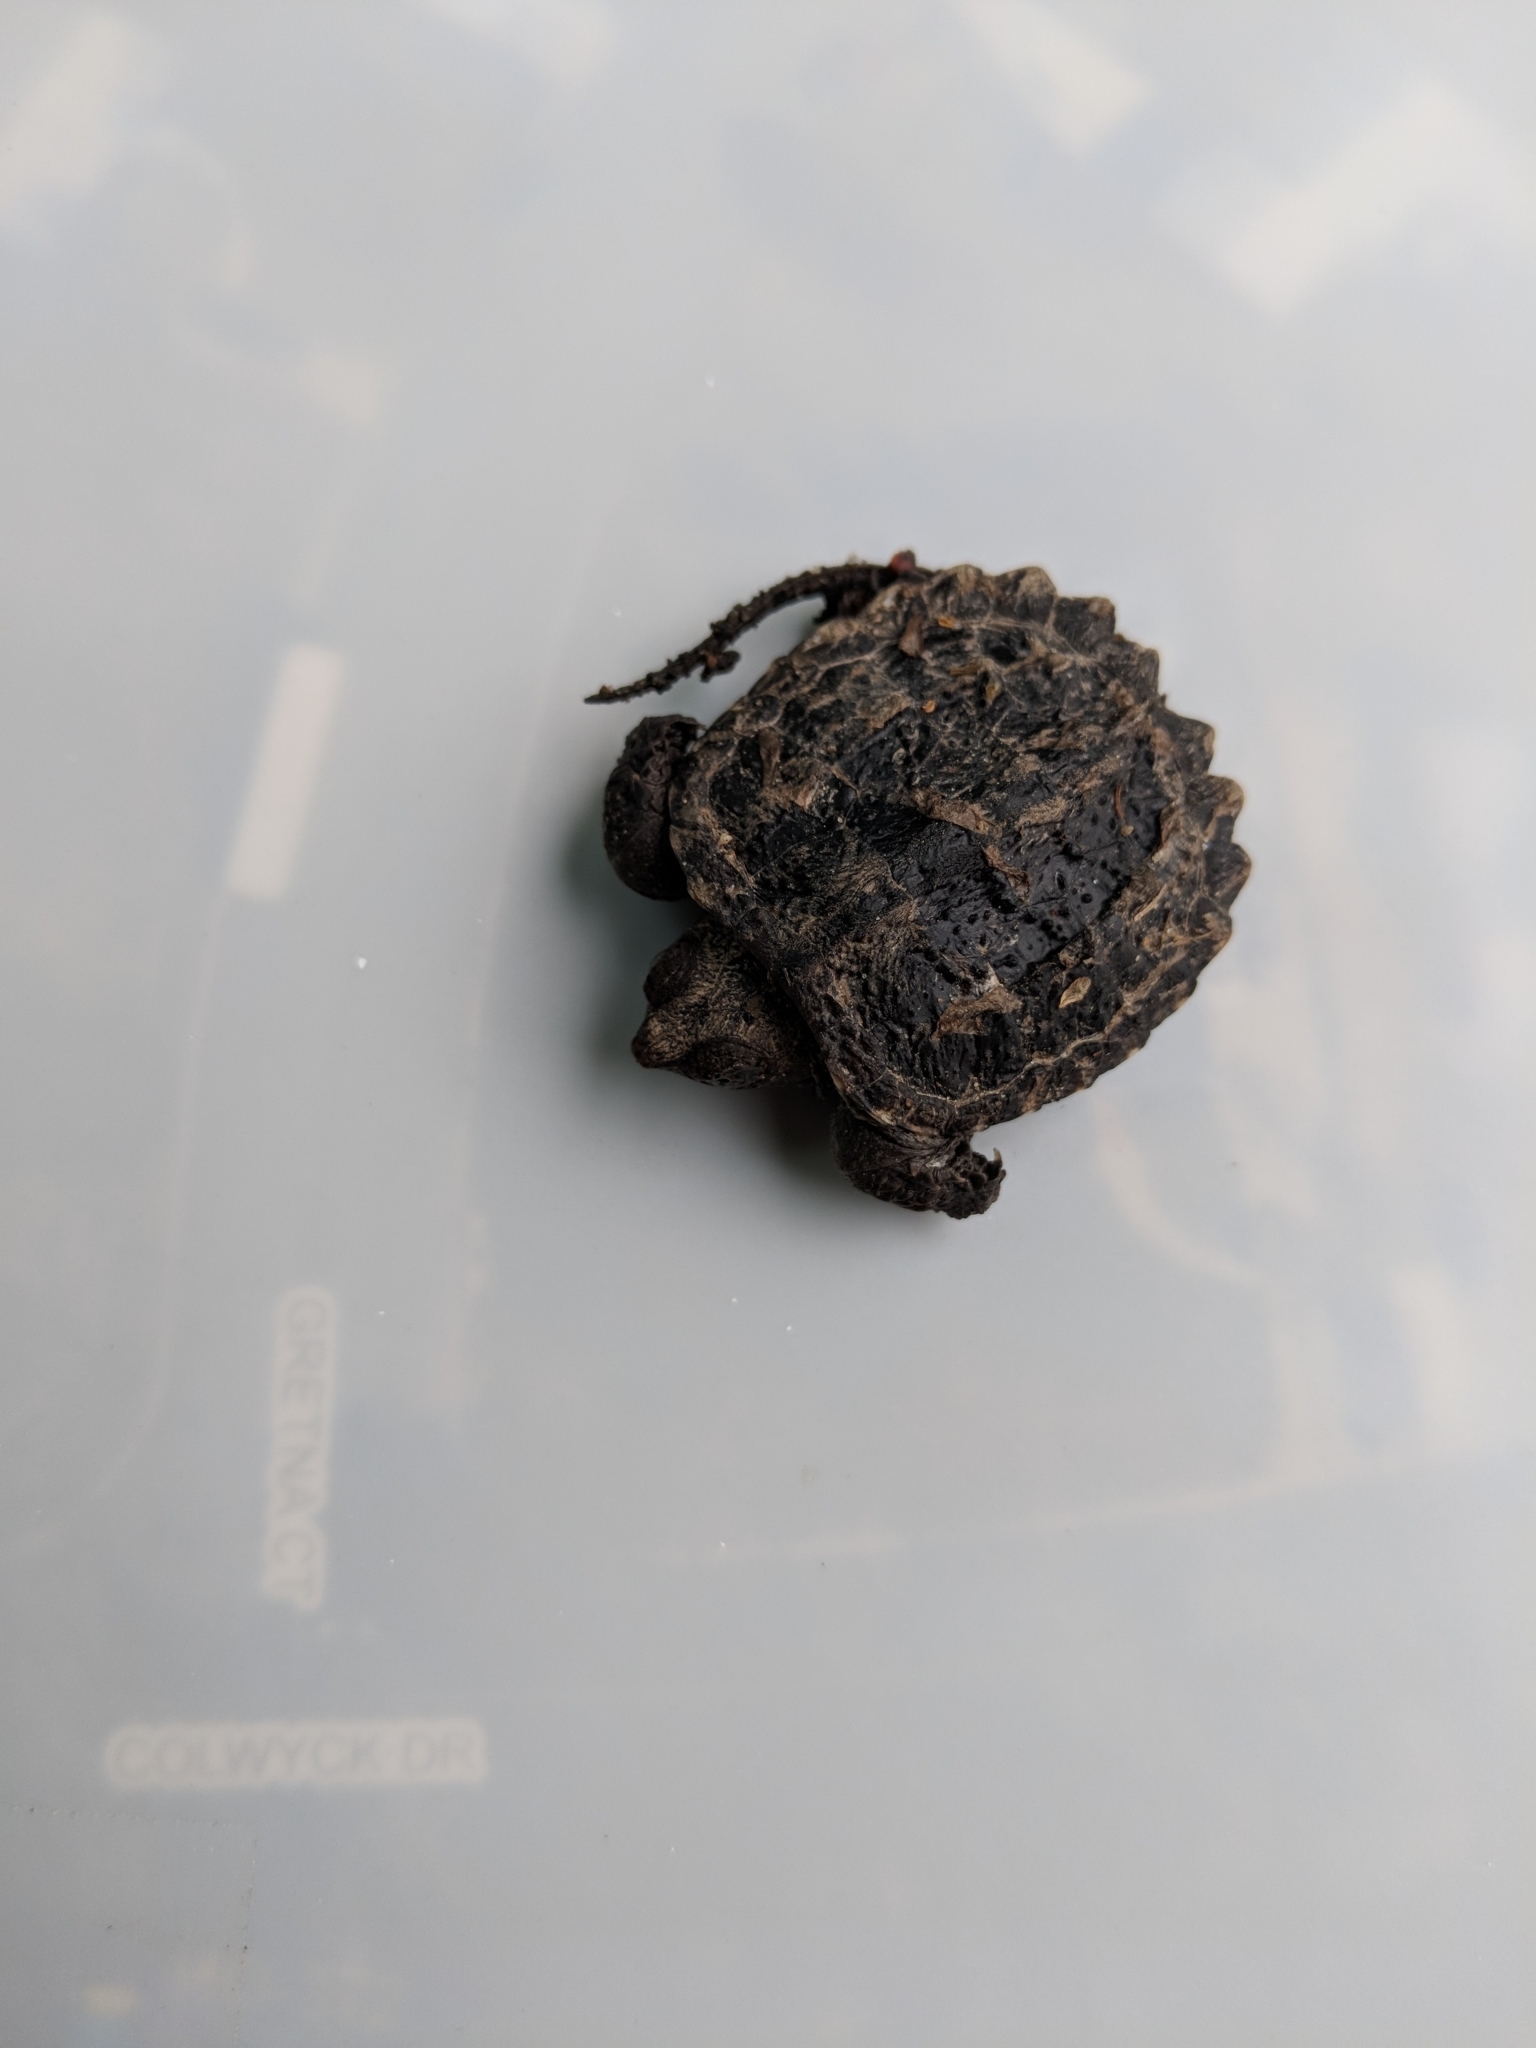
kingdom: Animalia
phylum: Chordata
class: Testudines
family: Chelydridae
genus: Chelydra
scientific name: Chelydra serpentina
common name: Common snapping turtle
